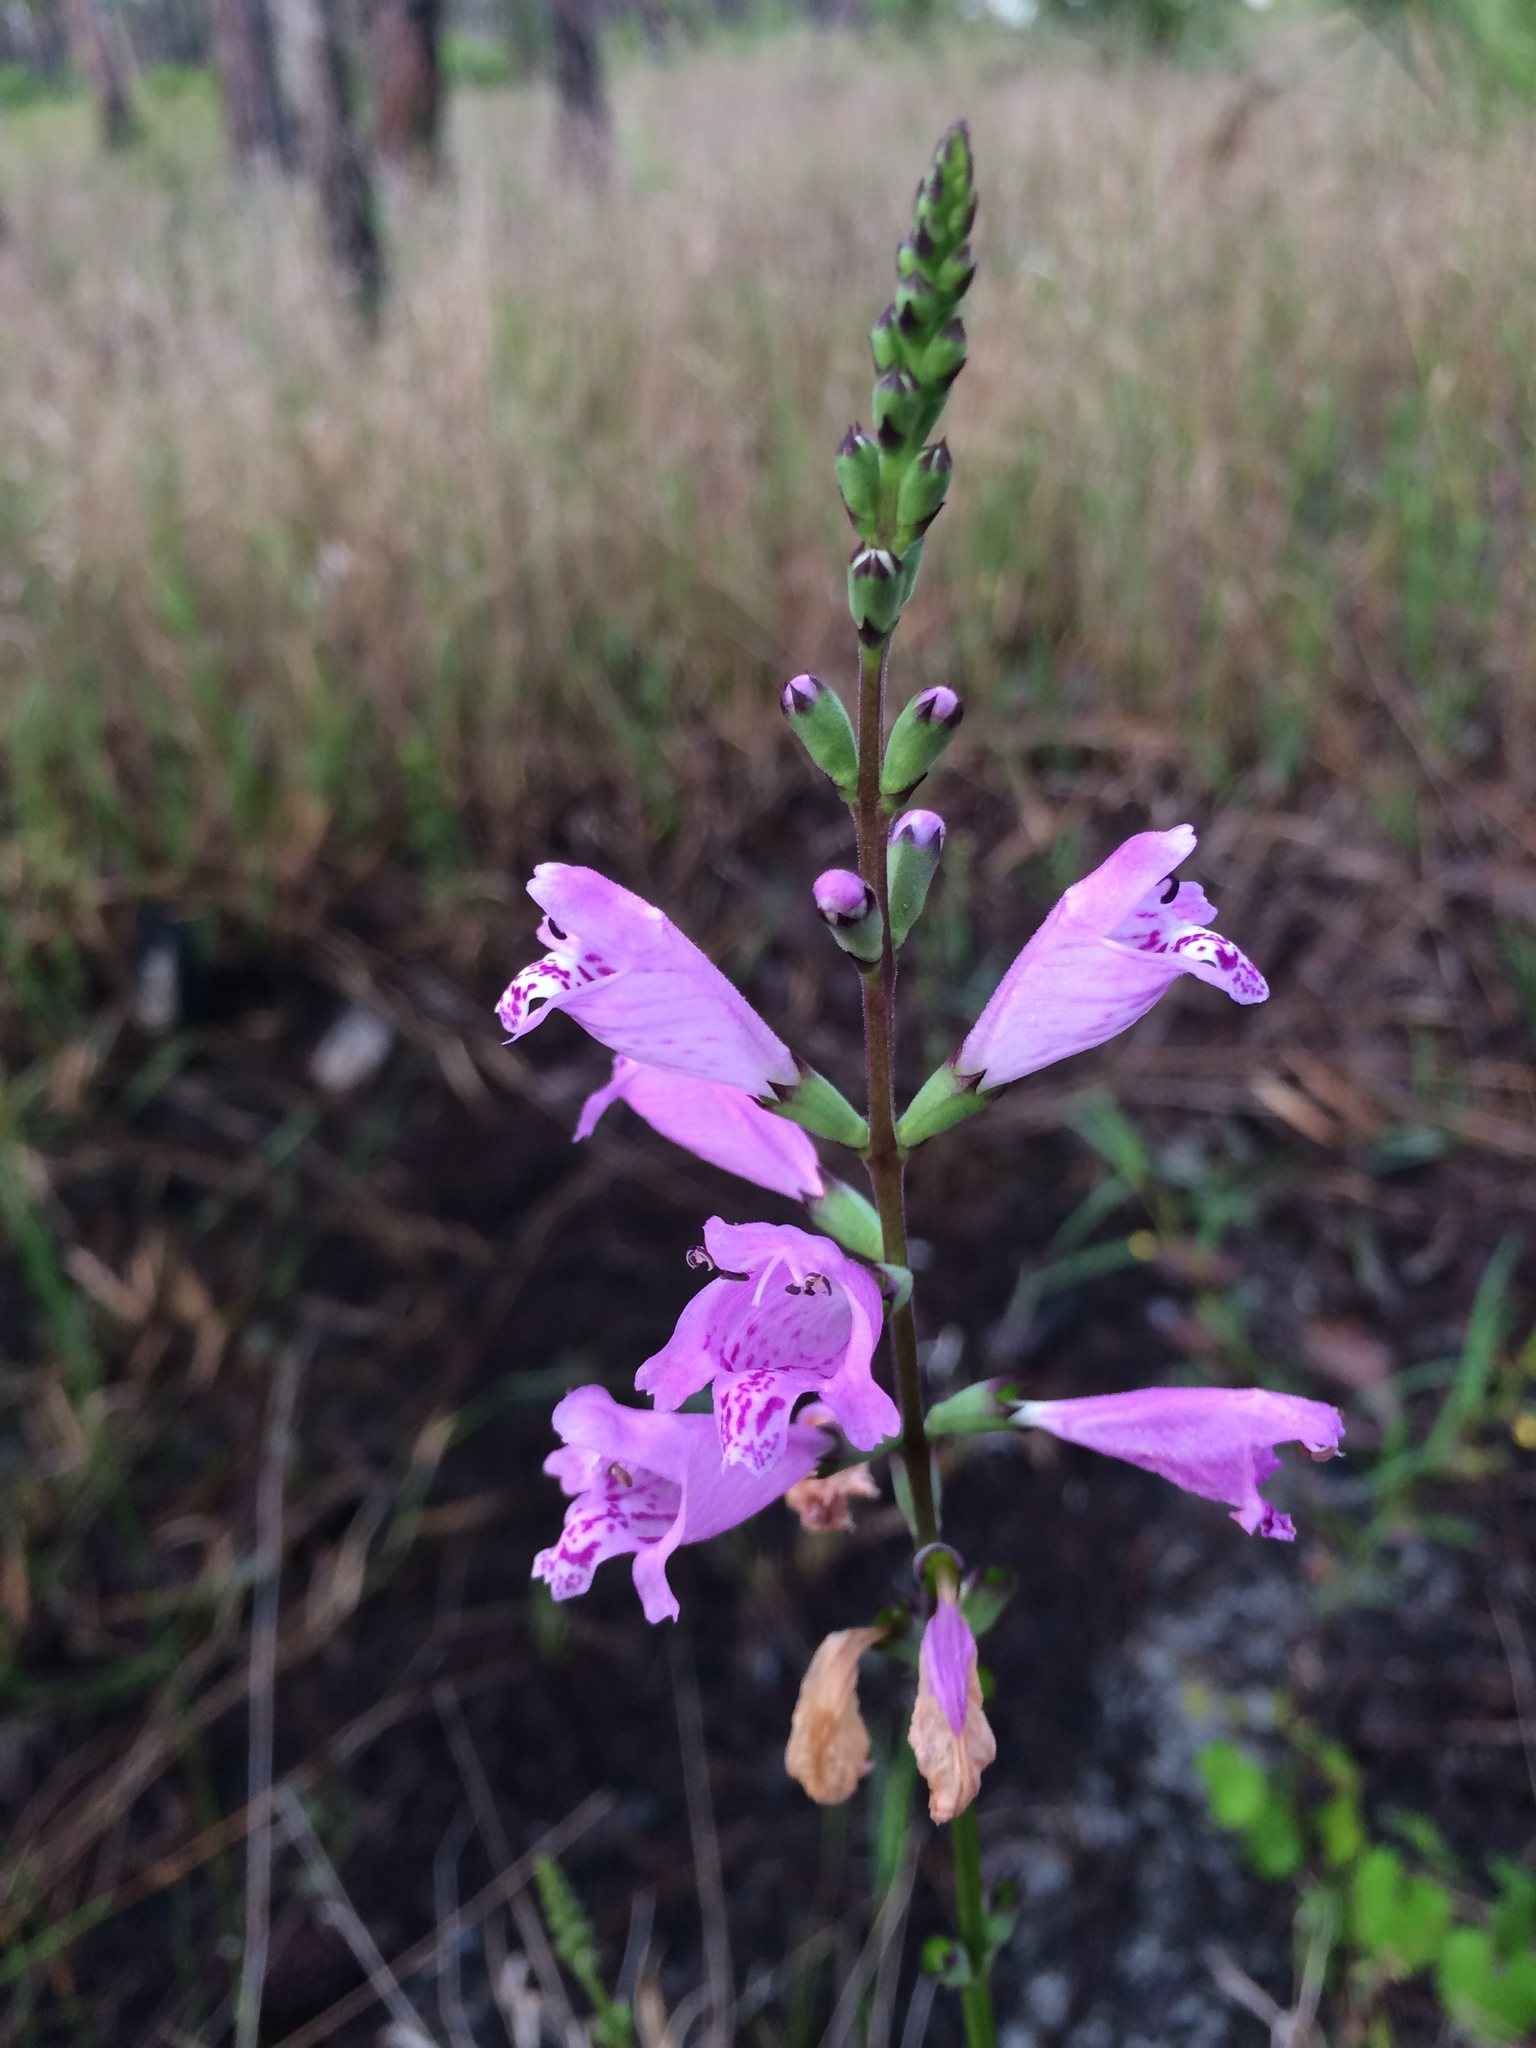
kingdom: Plantae
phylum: Tracheophyta
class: Magnoliopsida
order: Lamiales
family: Lamiaceae
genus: Physostegia
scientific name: Physostegia purpurea
